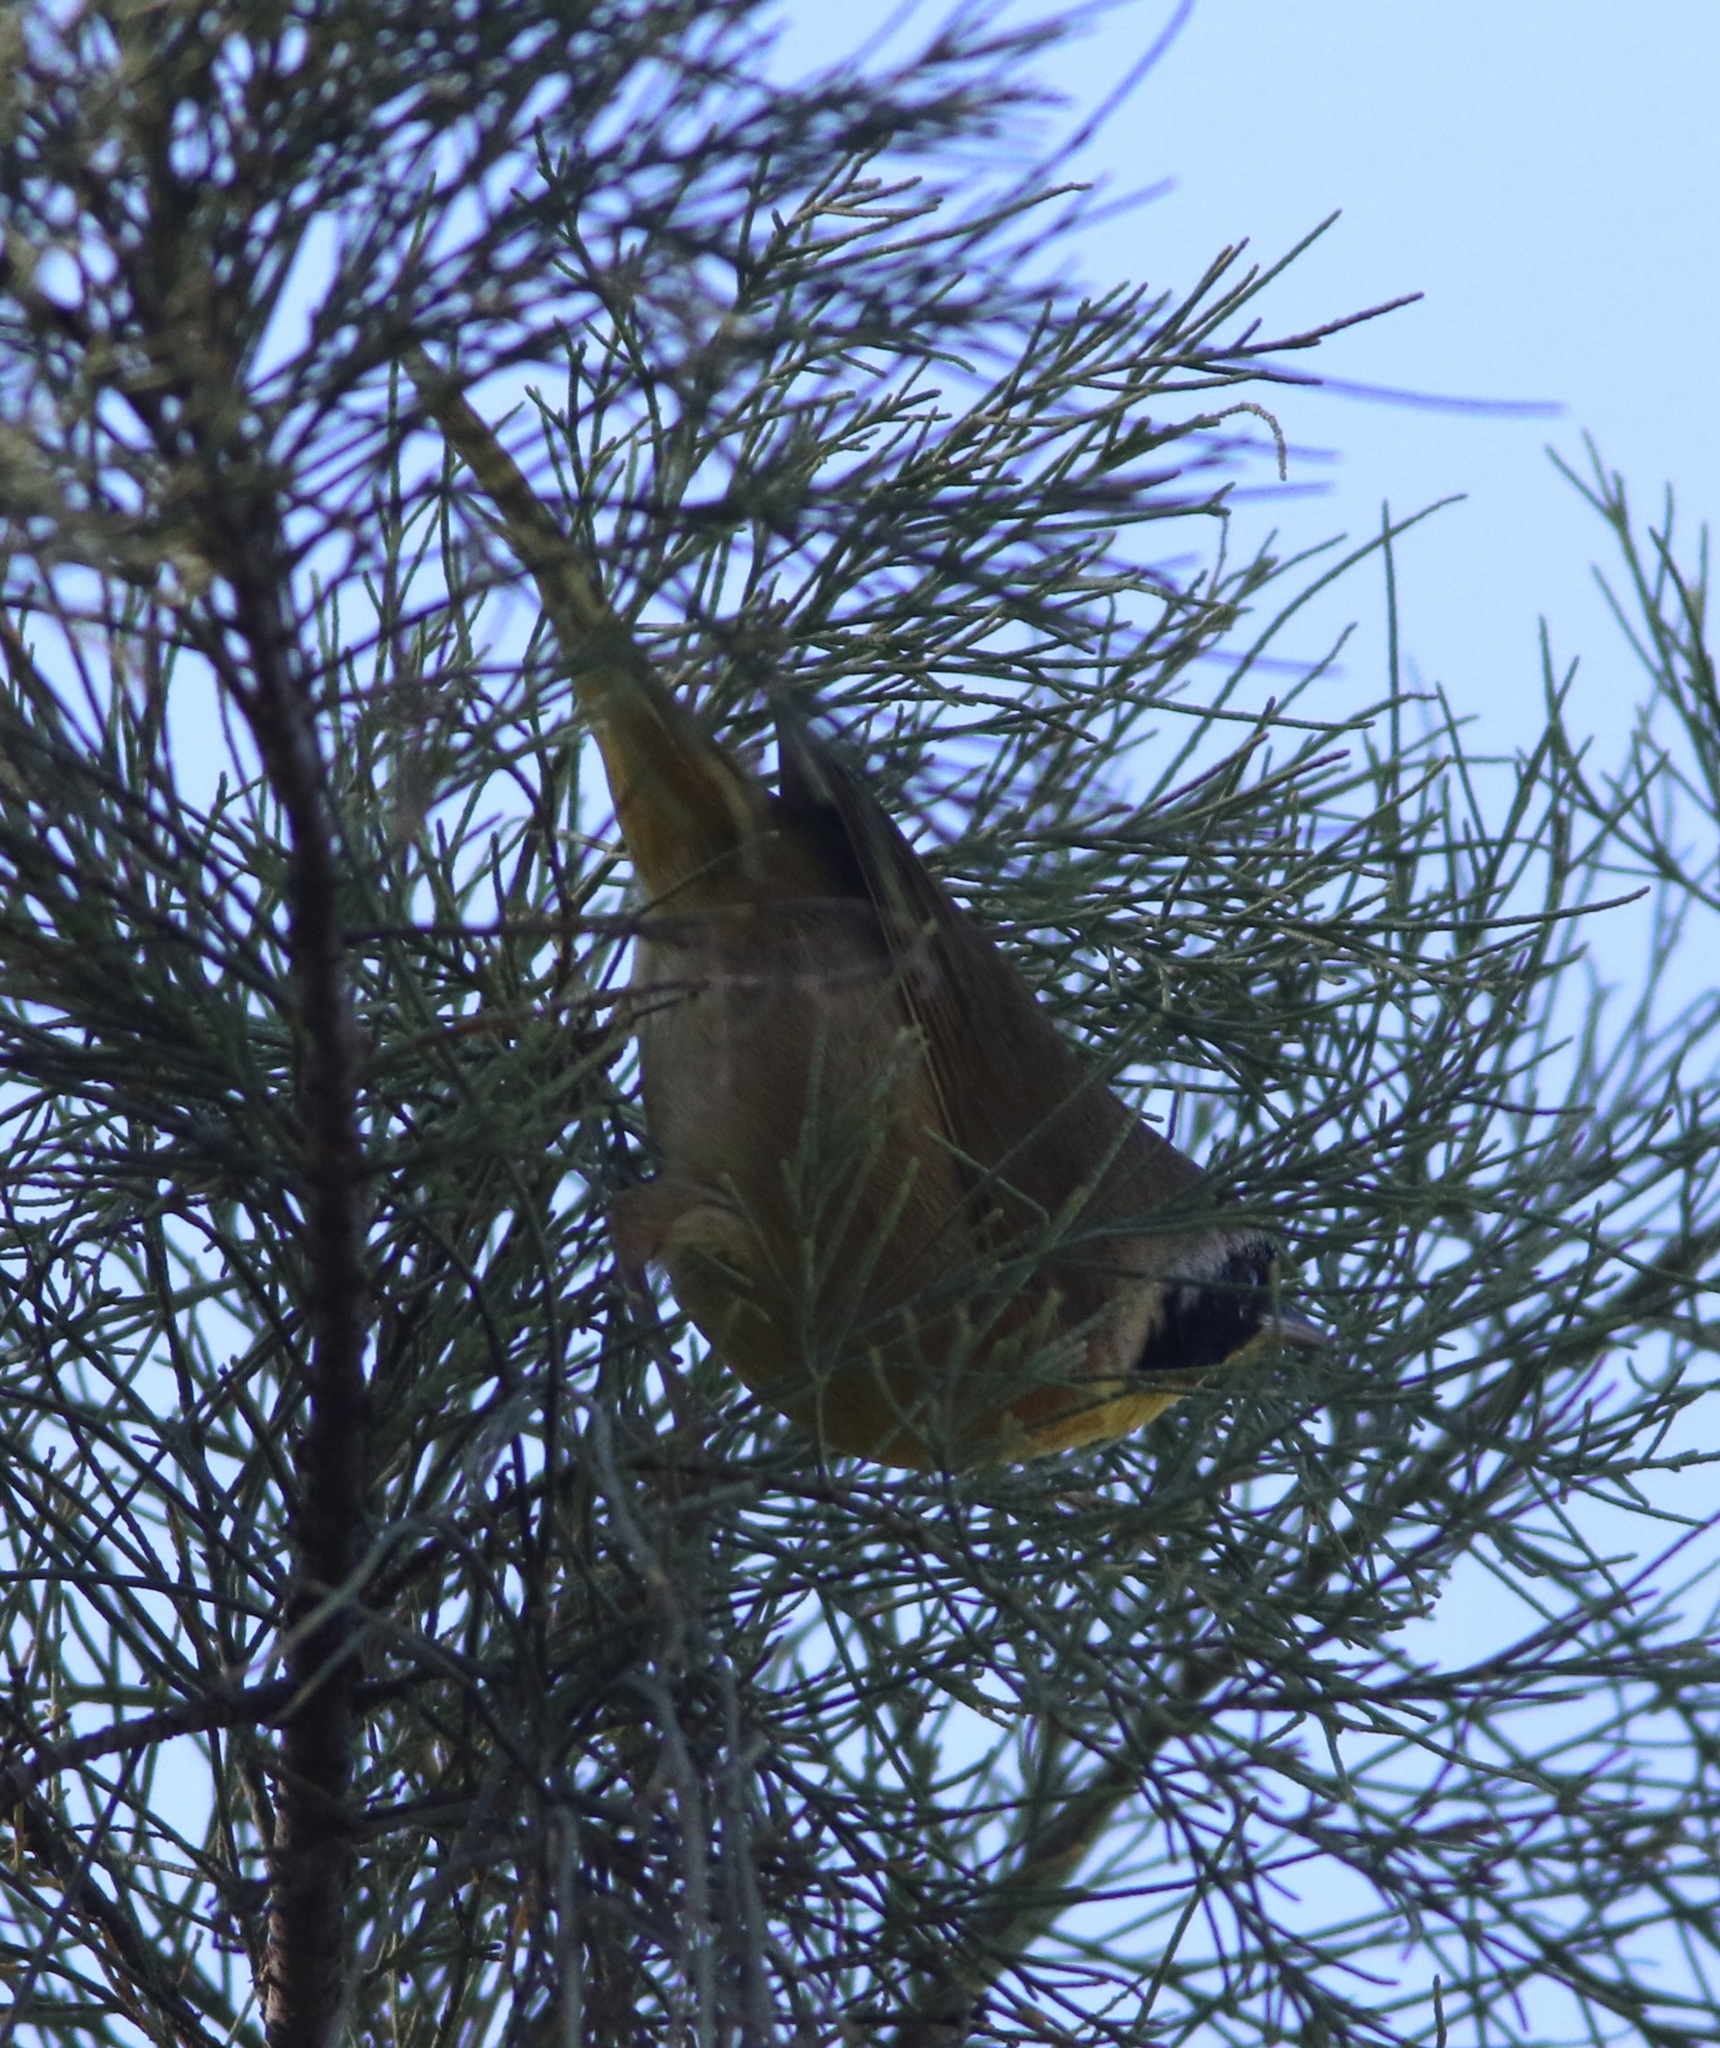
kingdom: Animalia
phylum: Chordata
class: Aves
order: Passeriformes
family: Parulidae
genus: Geothlypis
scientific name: Geothlypis trichas
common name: Common yellowthroat
